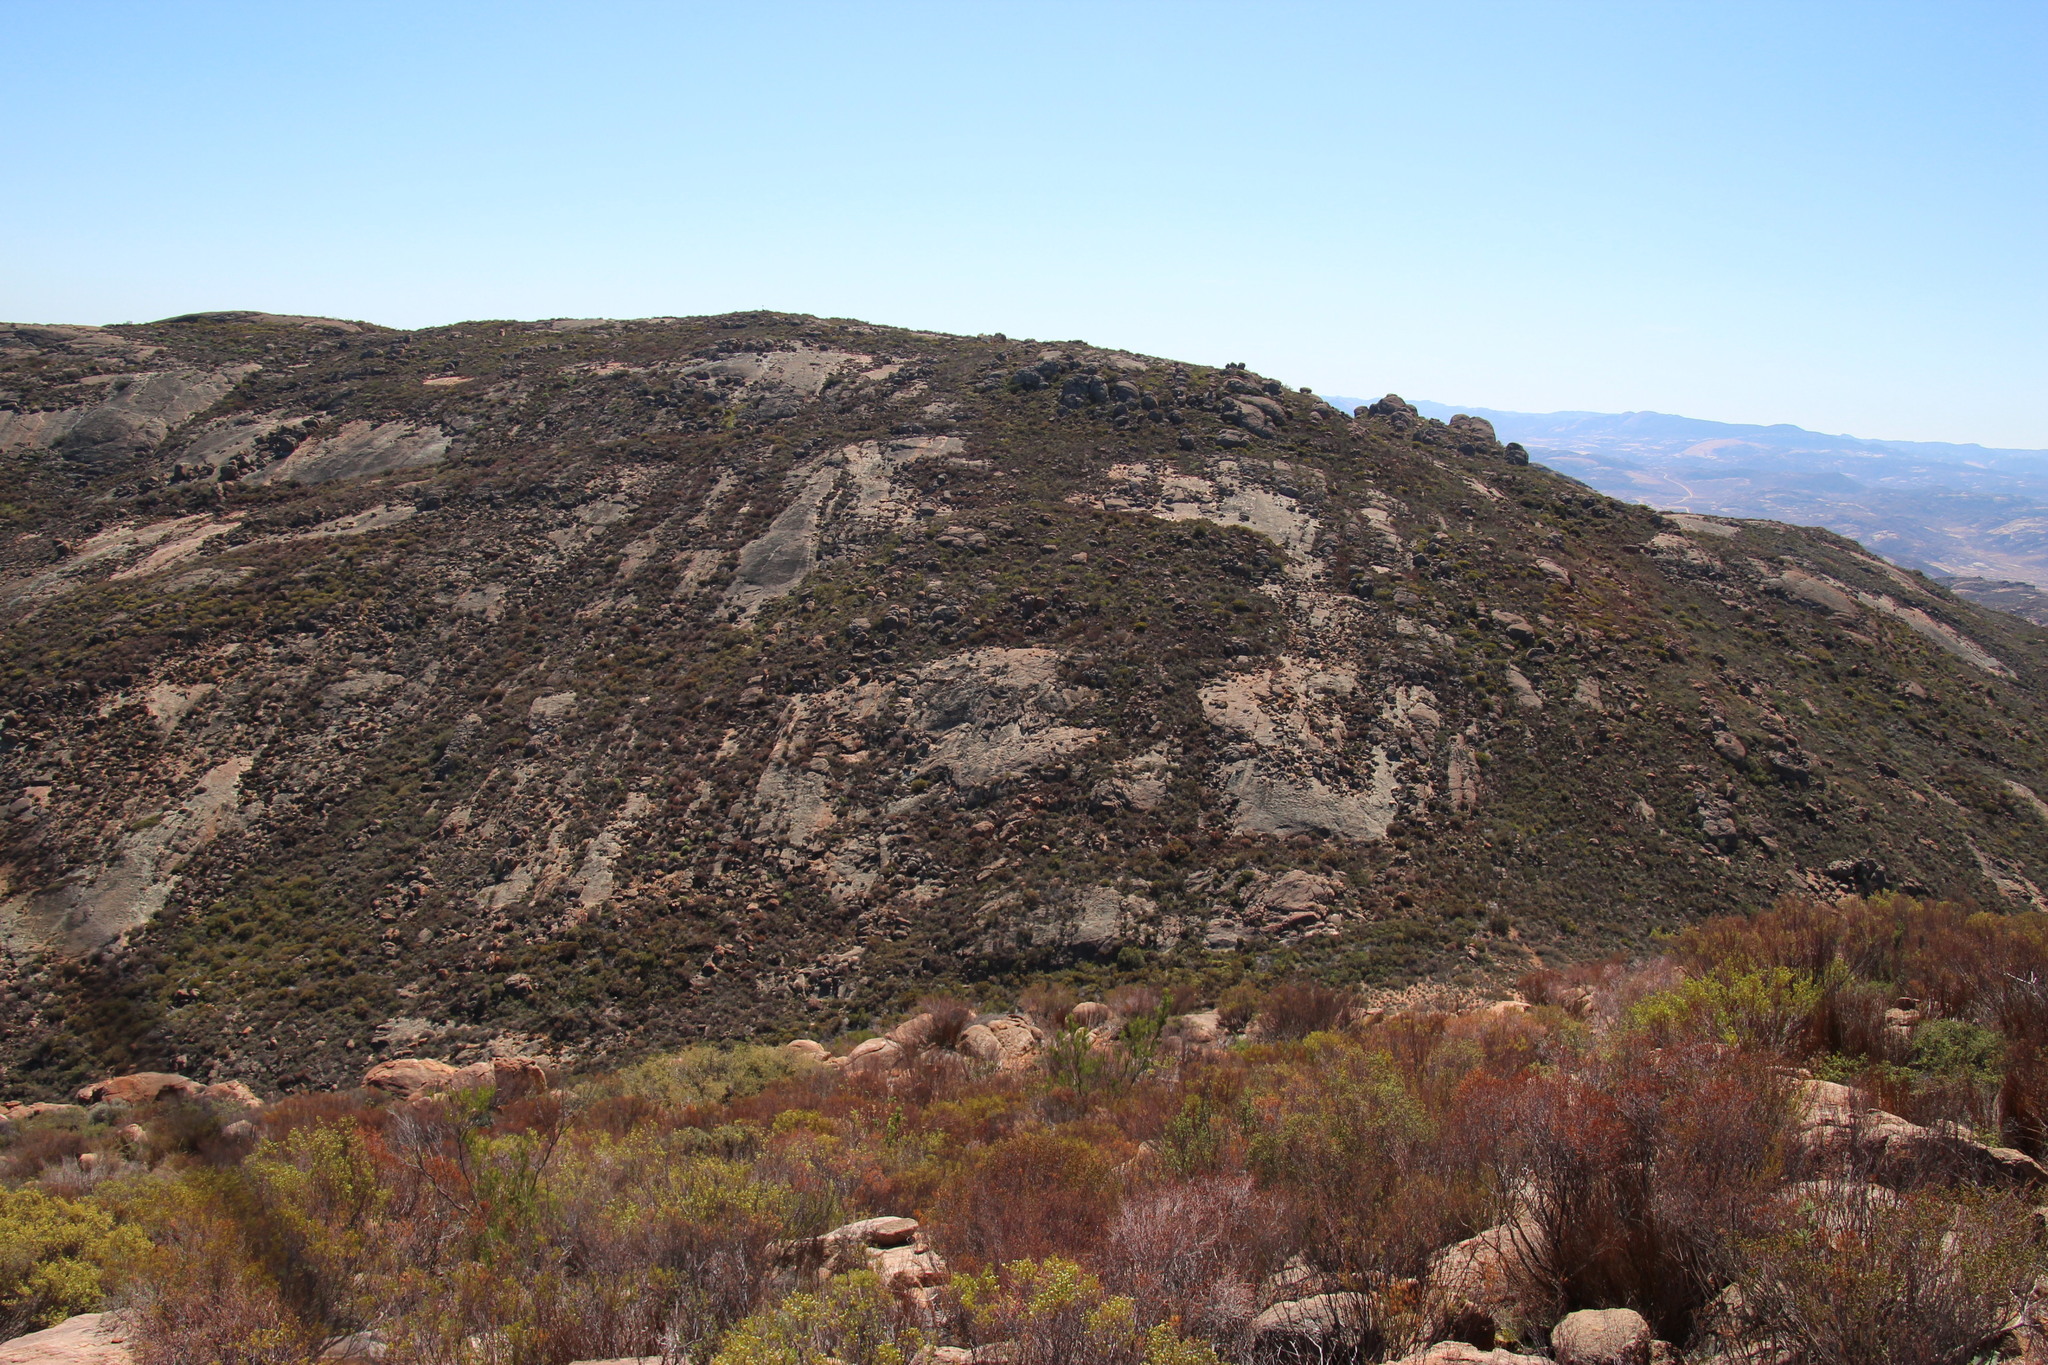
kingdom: Plantae
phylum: Tracheophyta
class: Magnoliopsida
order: Sapindales
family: Rutaceae
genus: Diosma
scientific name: Diosma acmaeophylla
